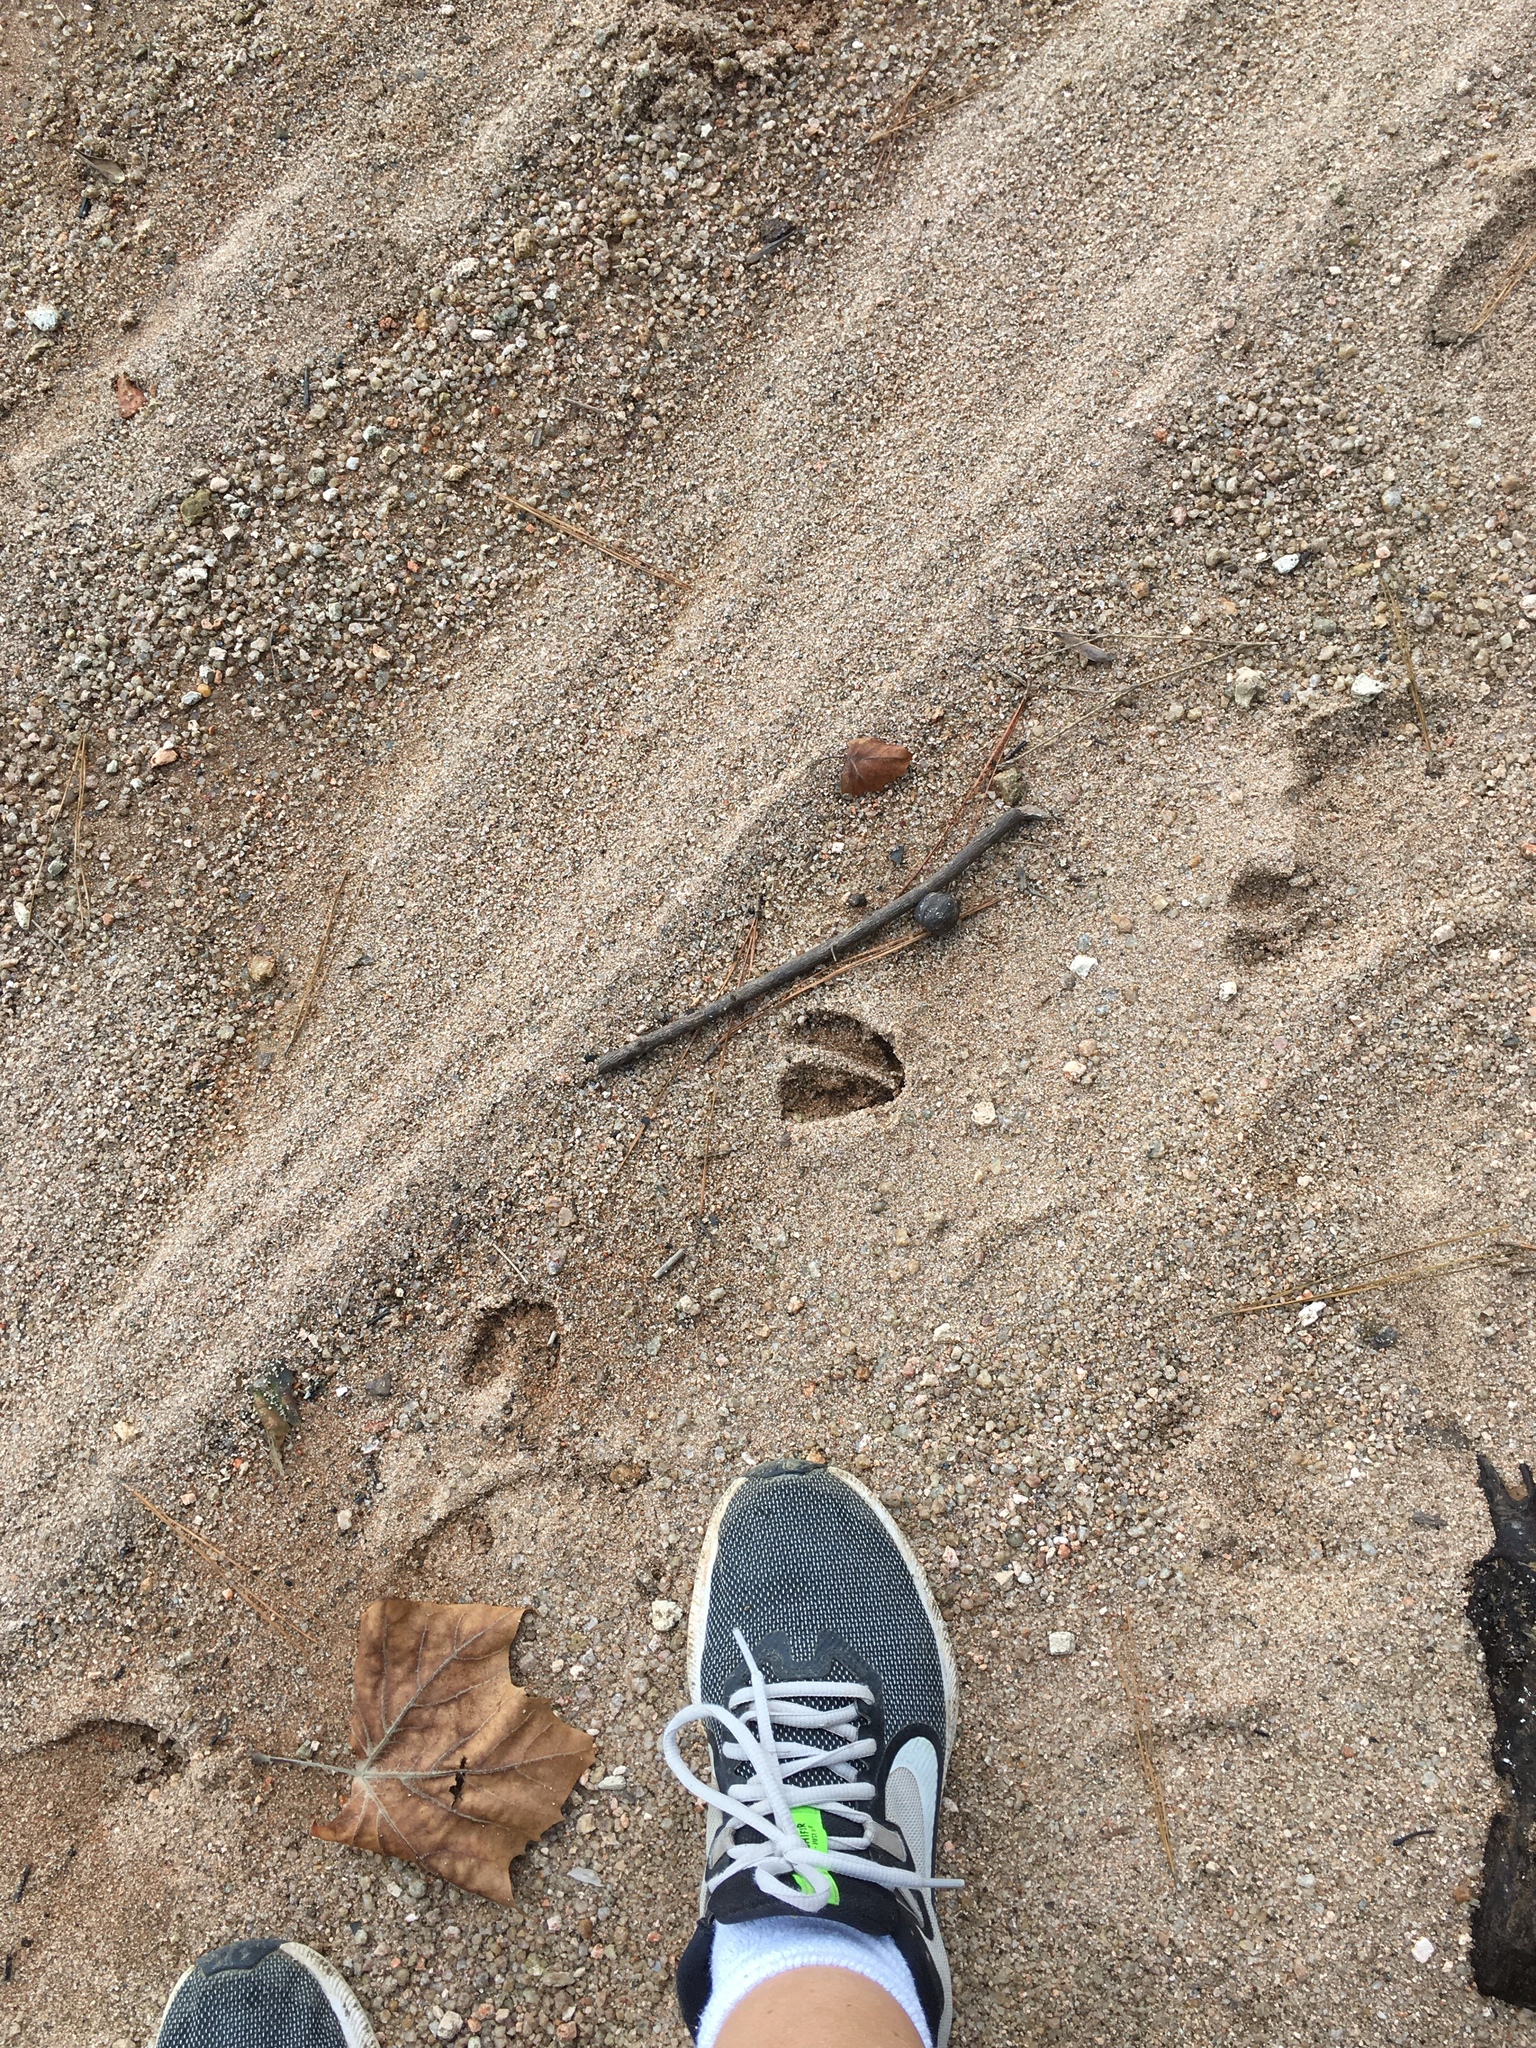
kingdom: Animalia
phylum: Chordata
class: Mammalia
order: Artiodactyla
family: Cervidae
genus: Odocoileus
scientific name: Odocoileus virginianus
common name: White-tailed deer
